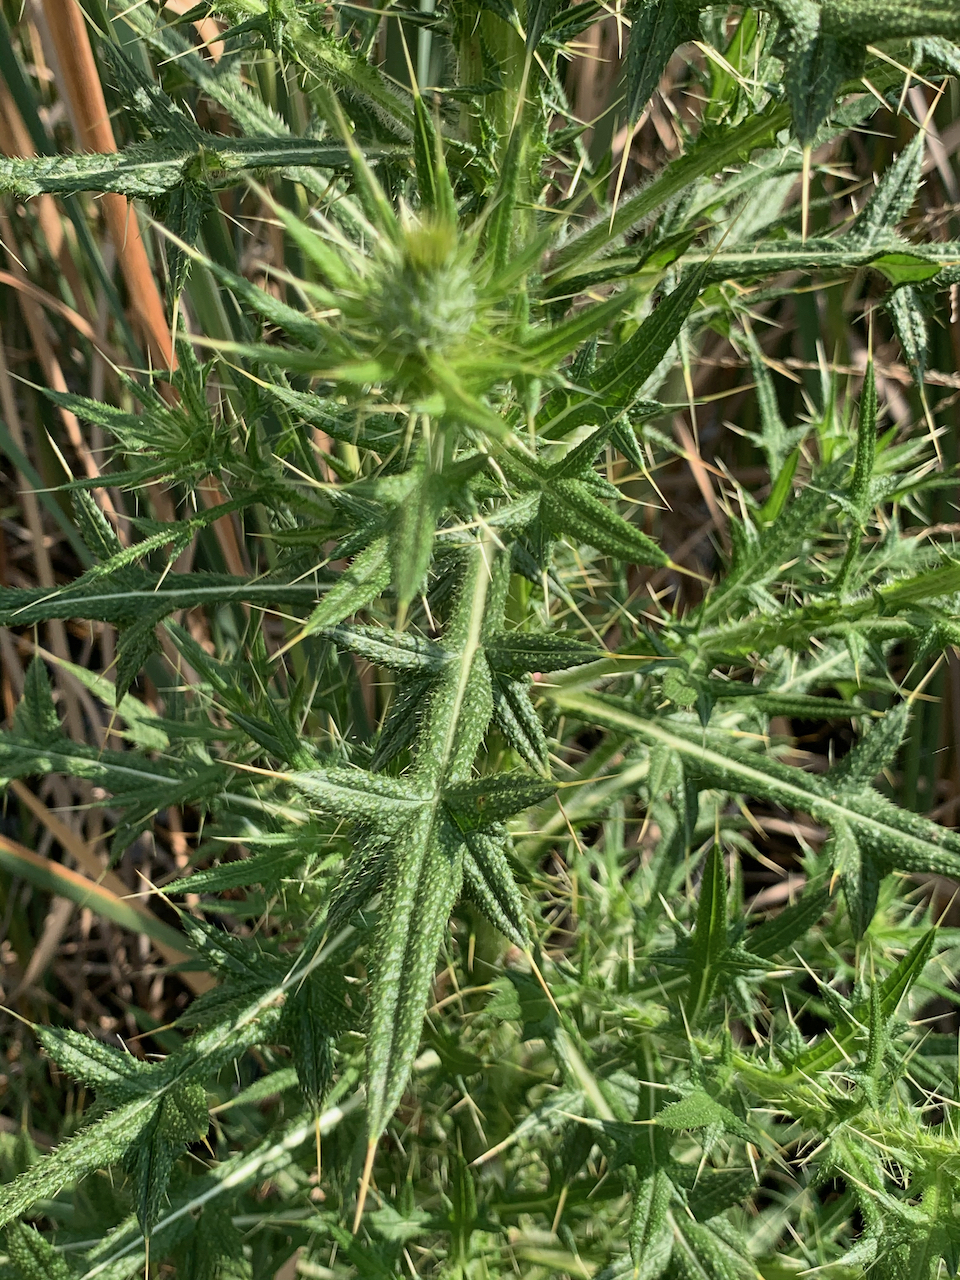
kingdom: Plantae
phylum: Tracheophyta
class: Magnoliopsida
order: Asterales
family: Asteraceae
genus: Cirsium
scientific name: Cirsium vulgare
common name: Bull thistle
